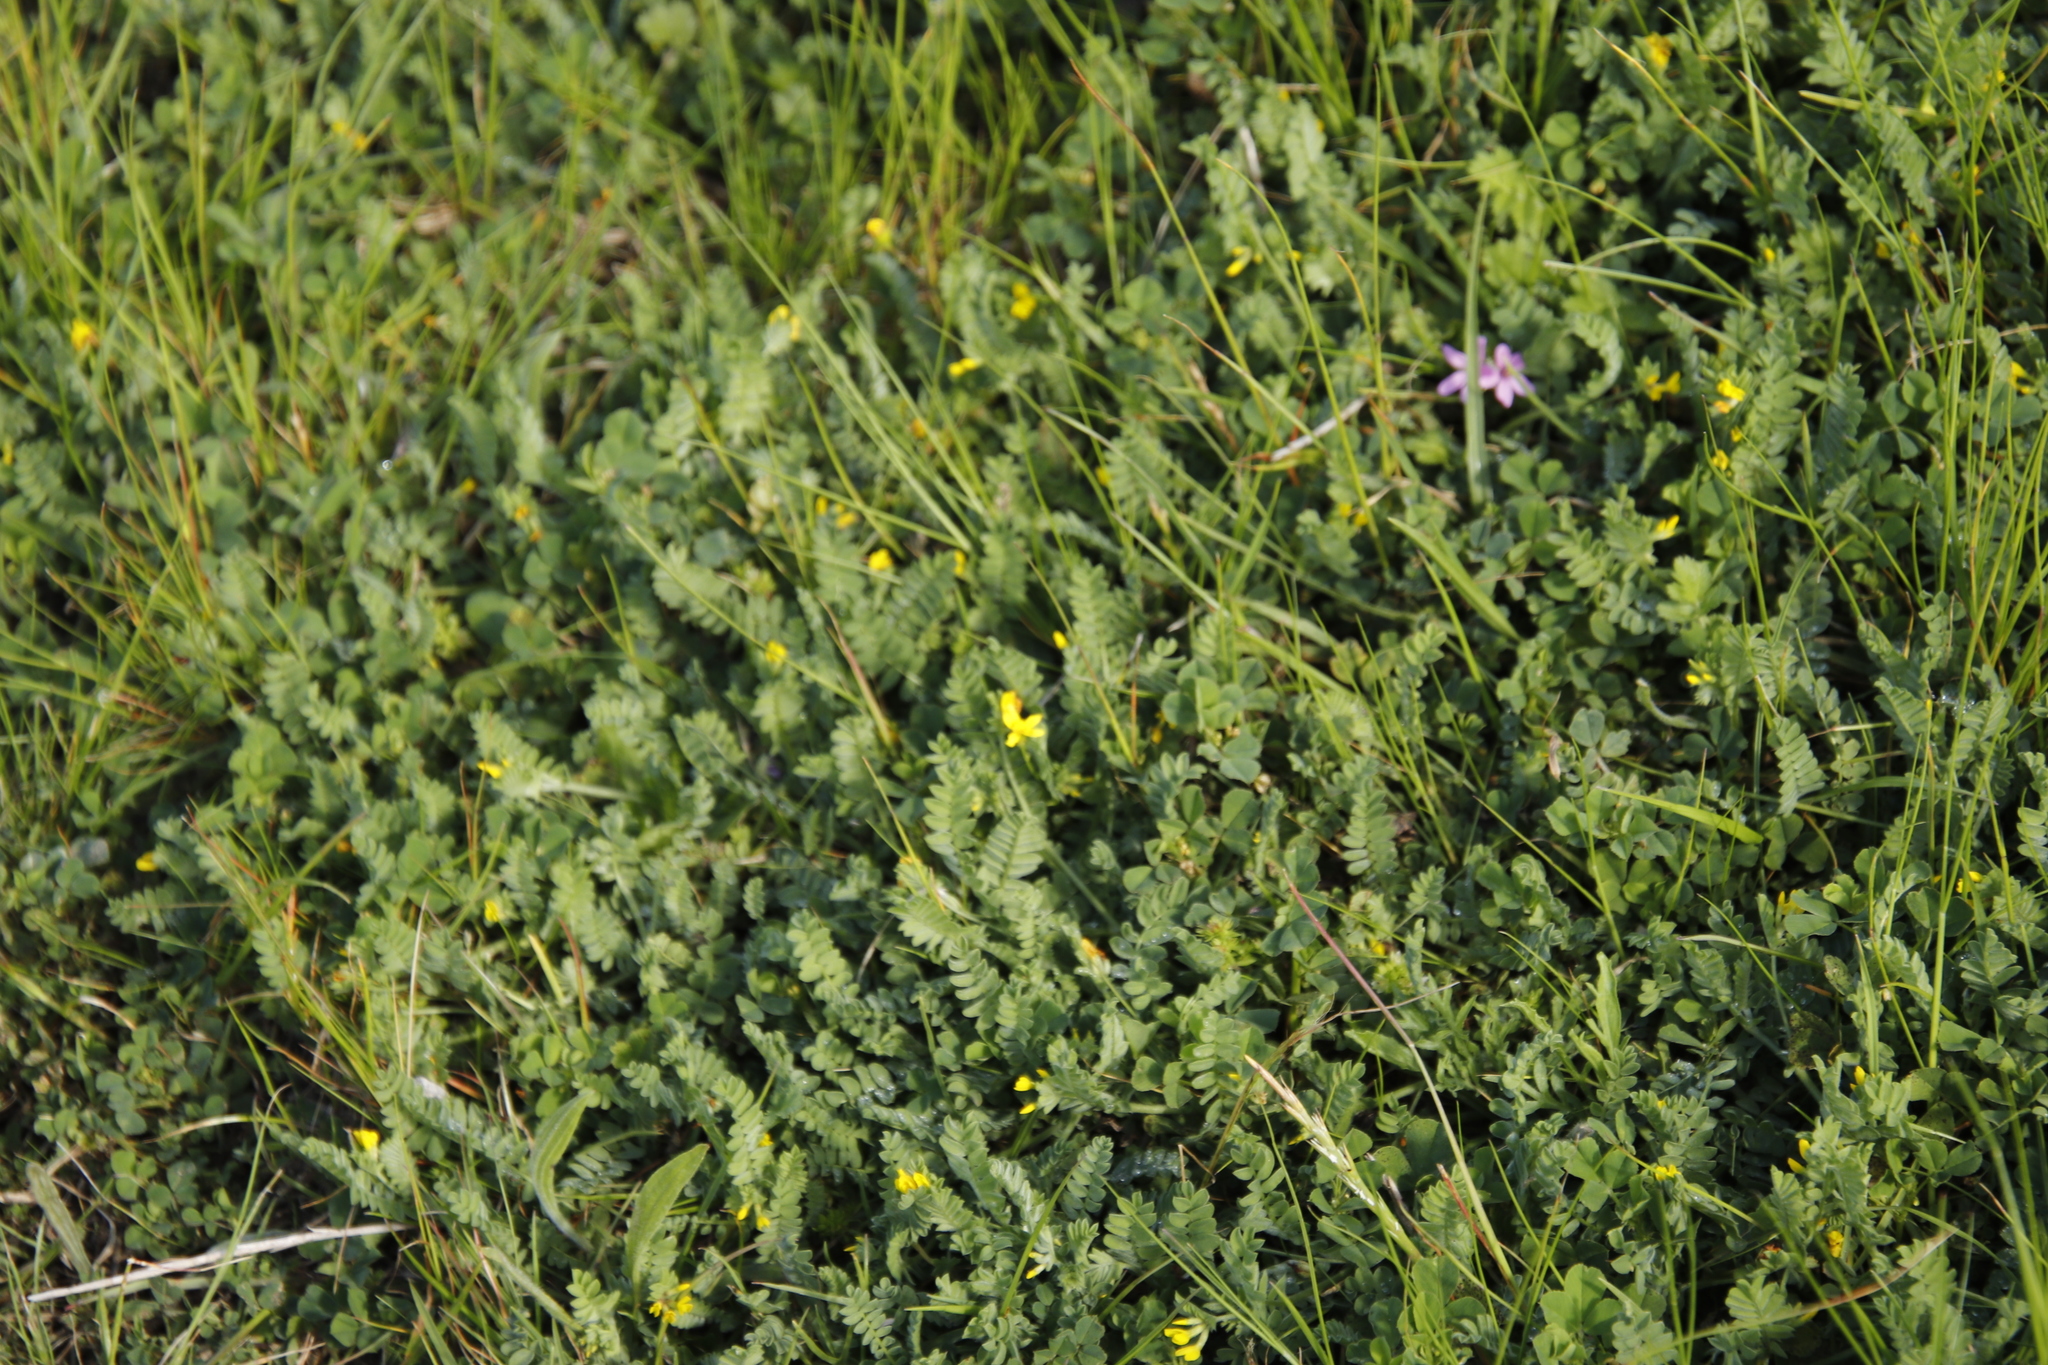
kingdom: Plantae
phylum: Tracheophyta
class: Magnoliopsida
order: Fabales
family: Fabaceae
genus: Ornithopus
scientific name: Ornithopus compressus
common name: Yellow serradella
